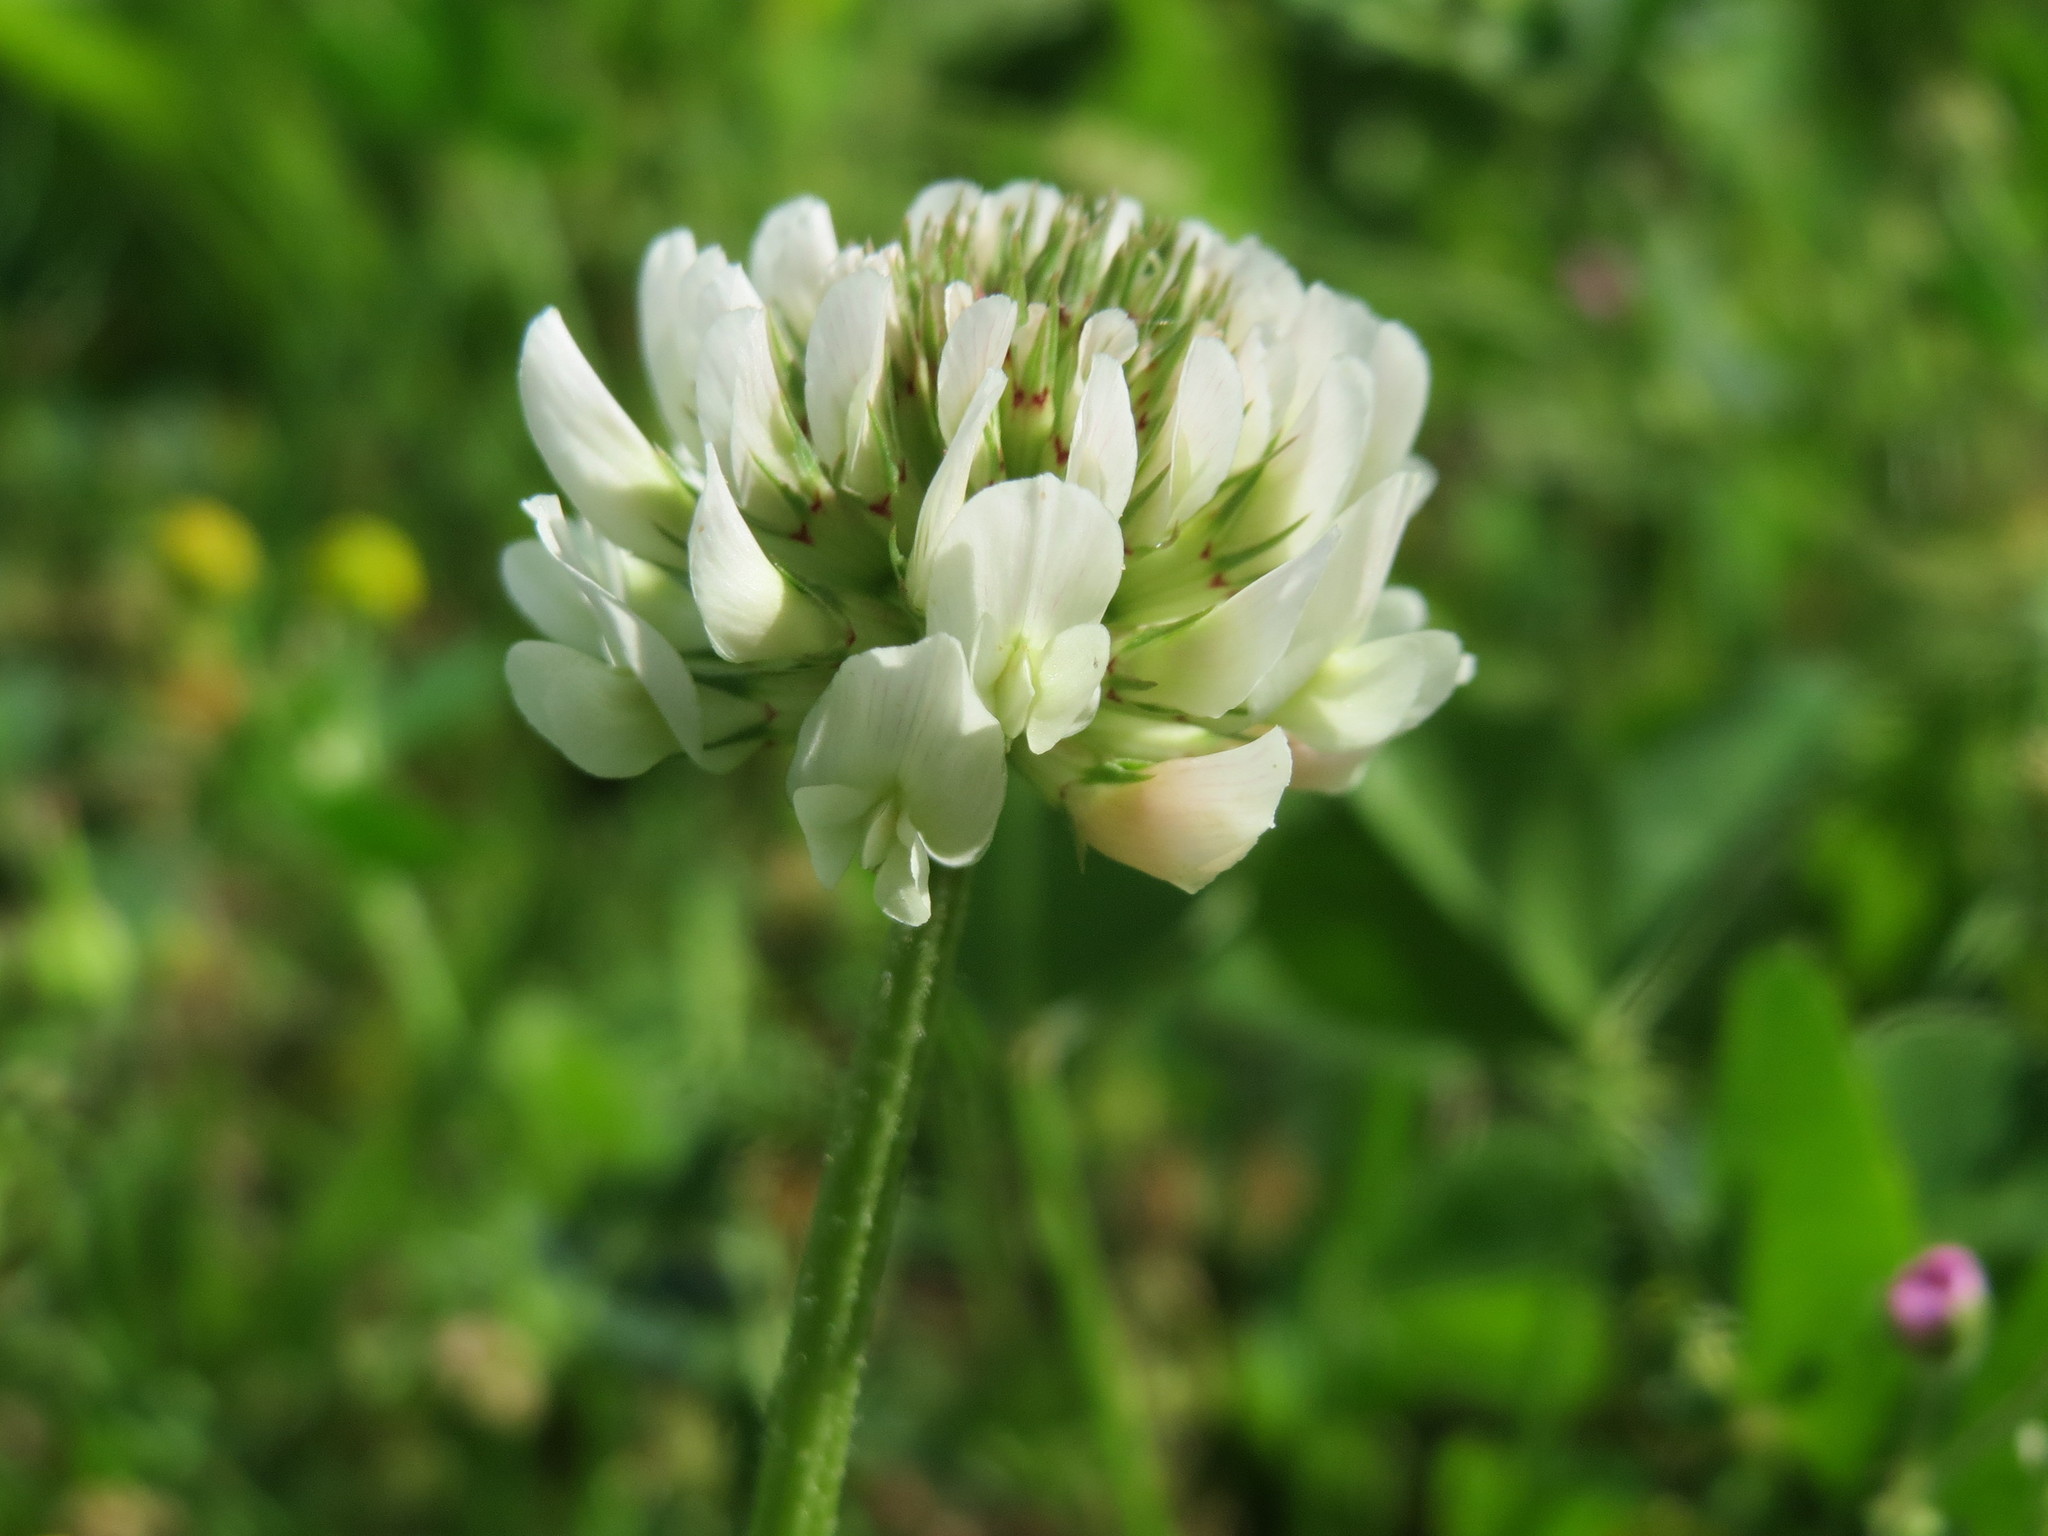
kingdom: Plantae
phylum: Tracheophyta
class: Magnoliopsida
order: Fabales
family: Fabaceae
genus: Trifolium
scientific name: Trifolium repens
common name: White clover
